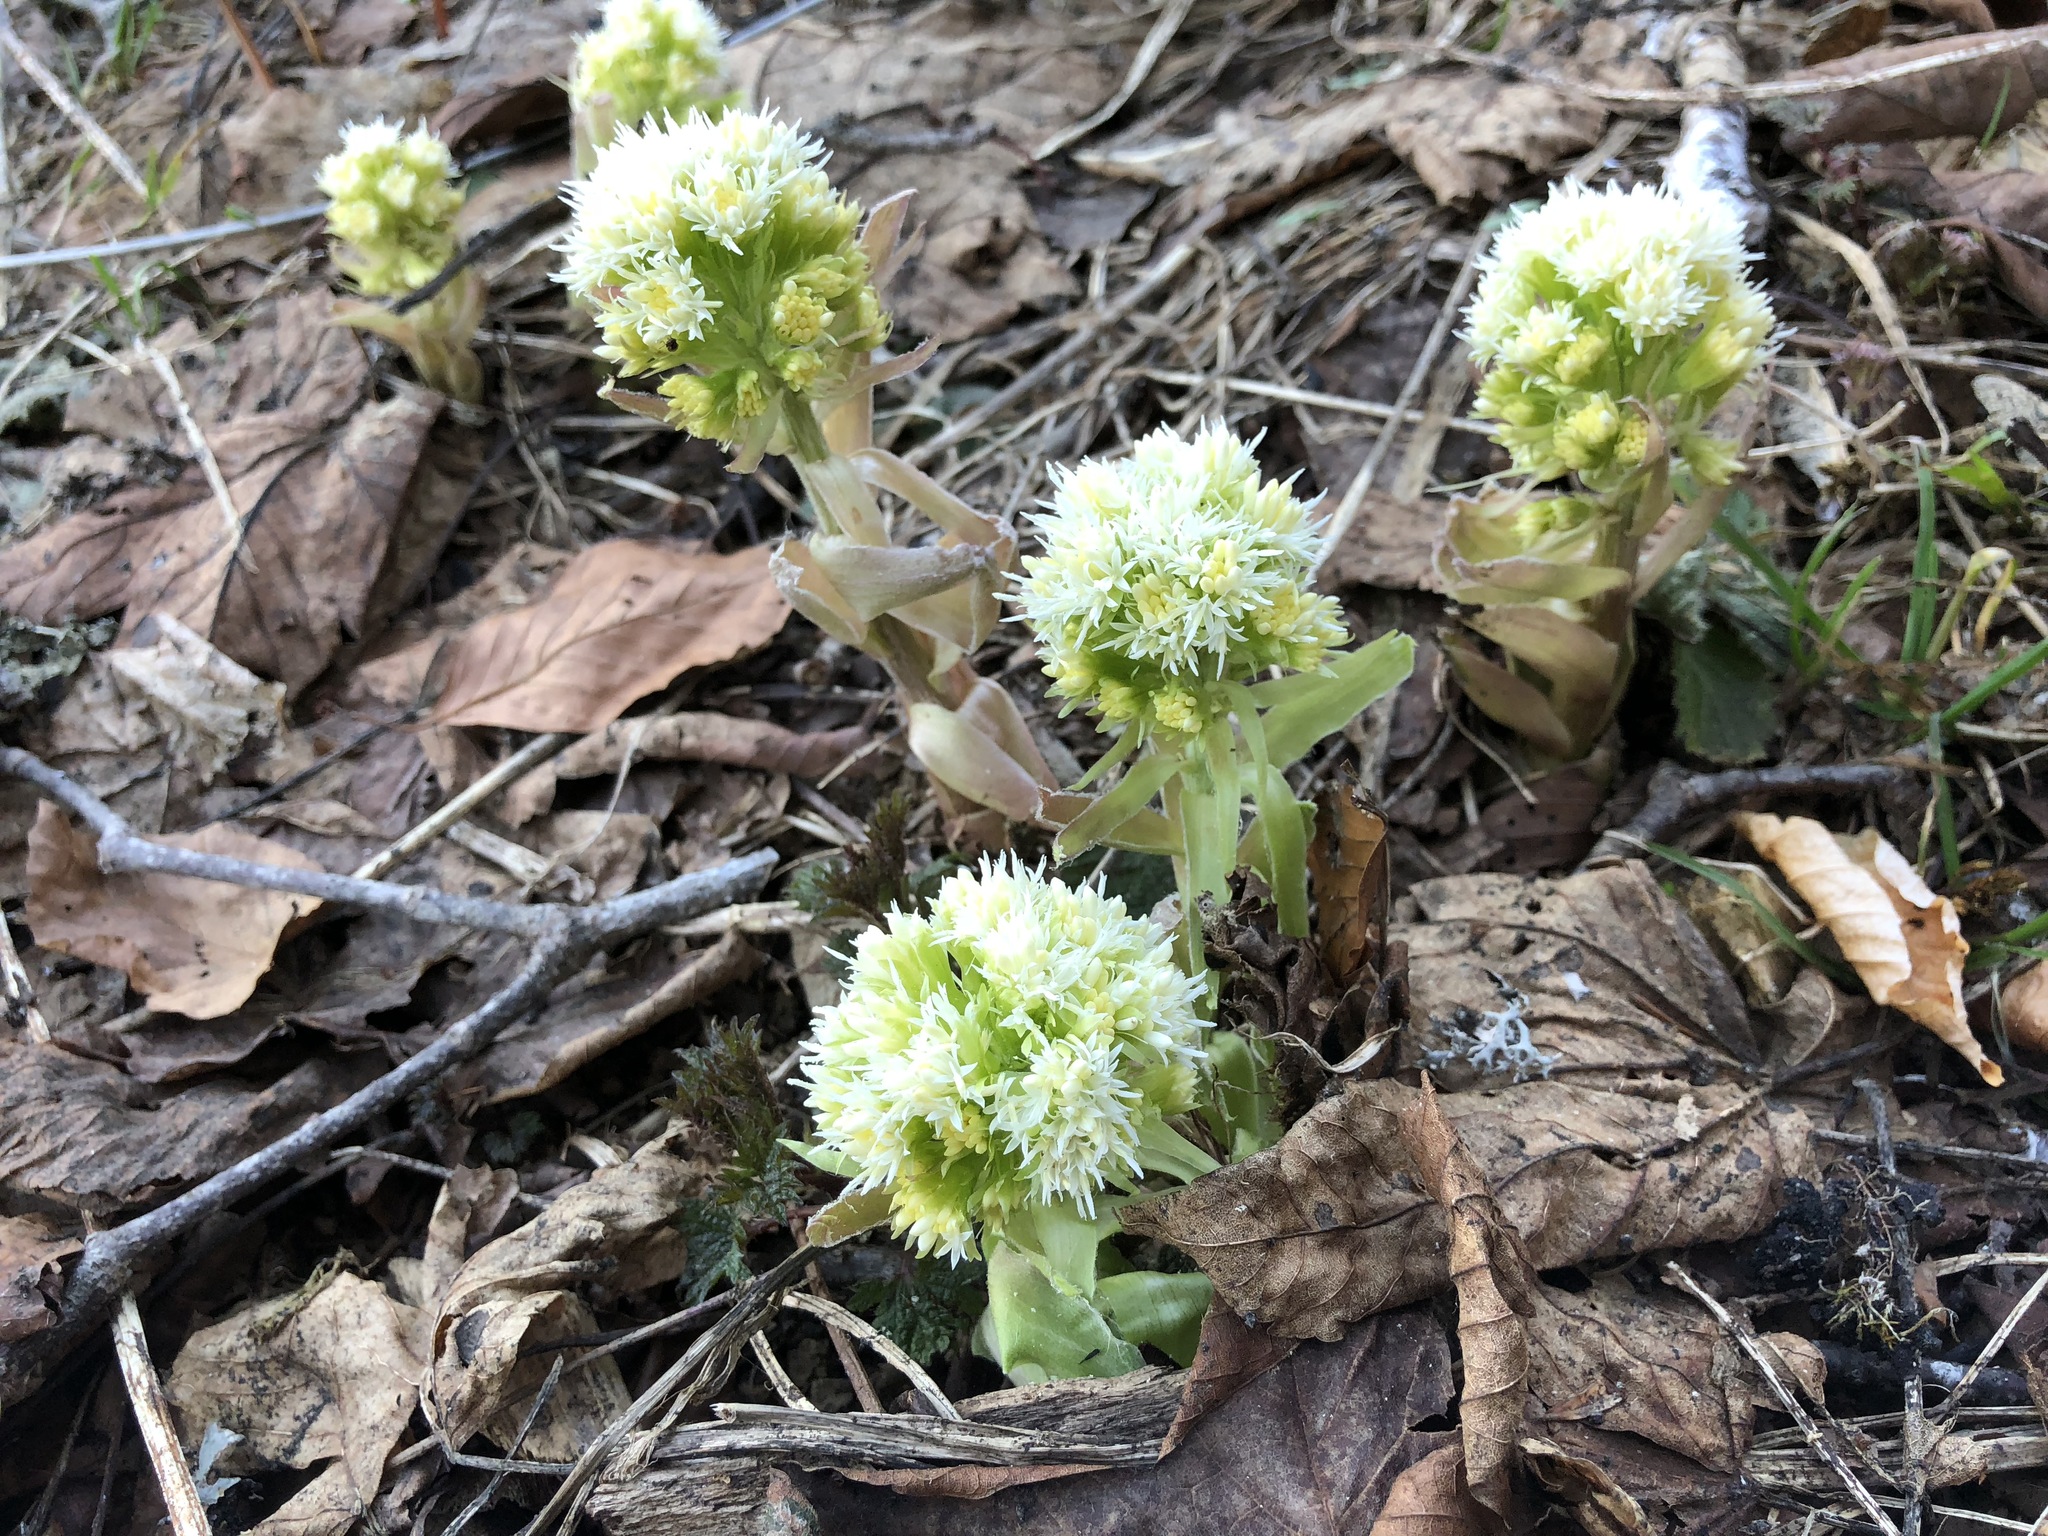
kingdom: Plantae
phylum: Tracheophyta
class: Magnoliopsida
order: Asterales
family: Asteraceae
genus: Petasites
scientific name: Petasites albus
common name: White butterbur
